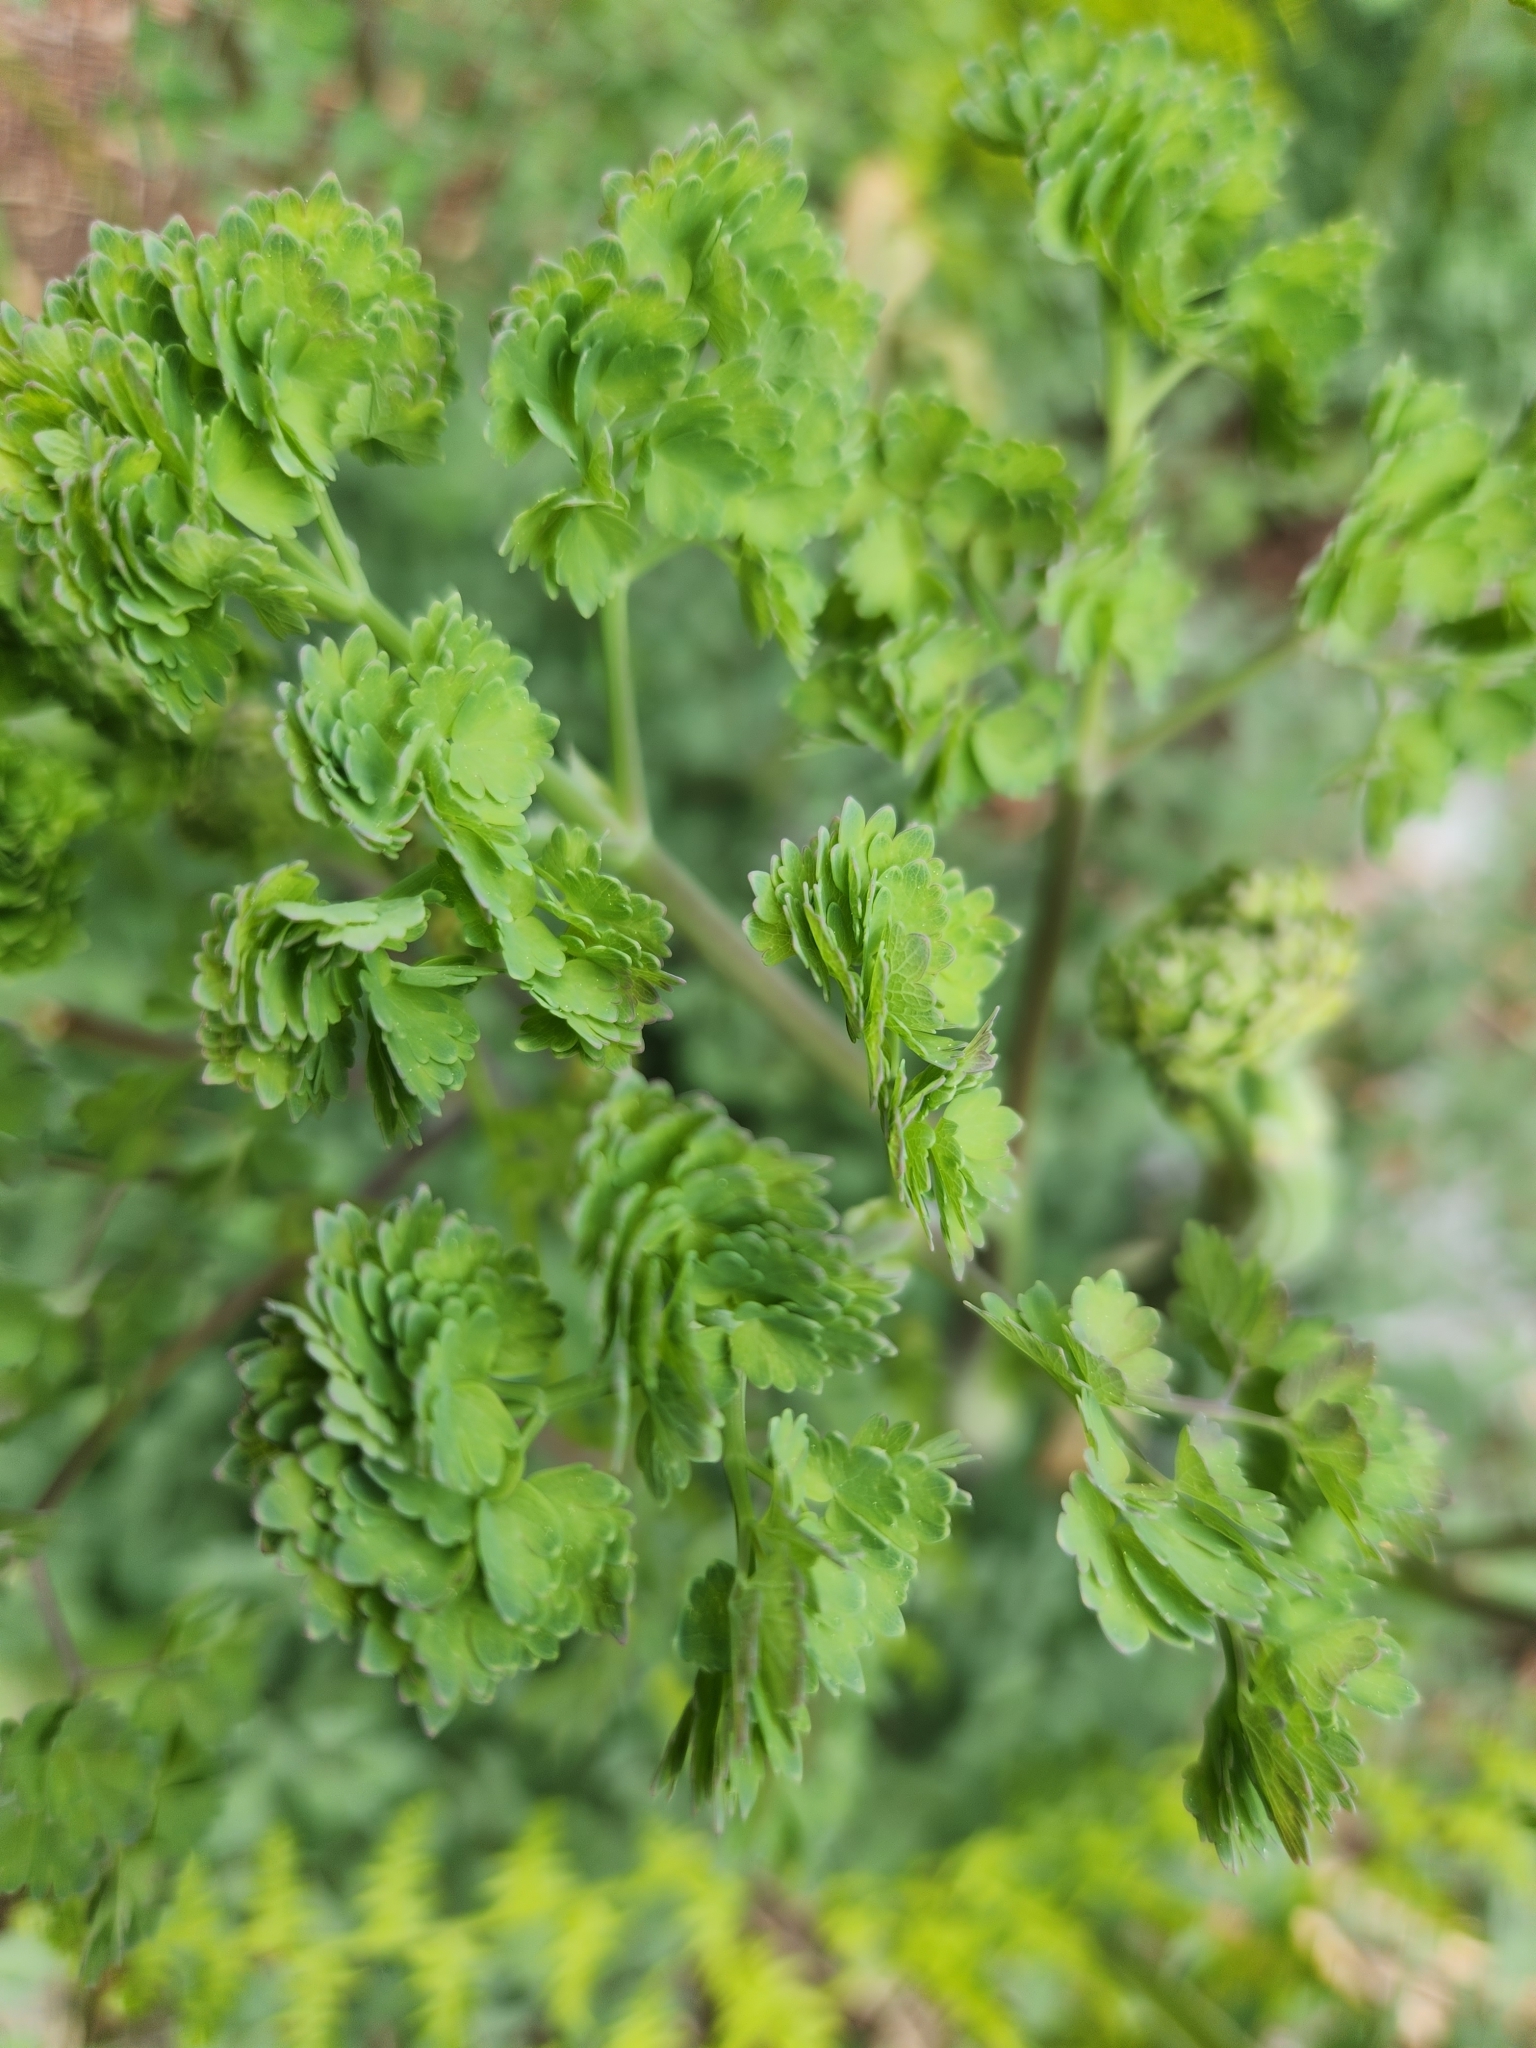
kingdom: Plantae
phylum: Tracheophyta
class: Magnoliopsida
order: Ranunculales
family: Ranunculaceae
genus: Thalictrum
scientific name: Thalictrum fendleri
